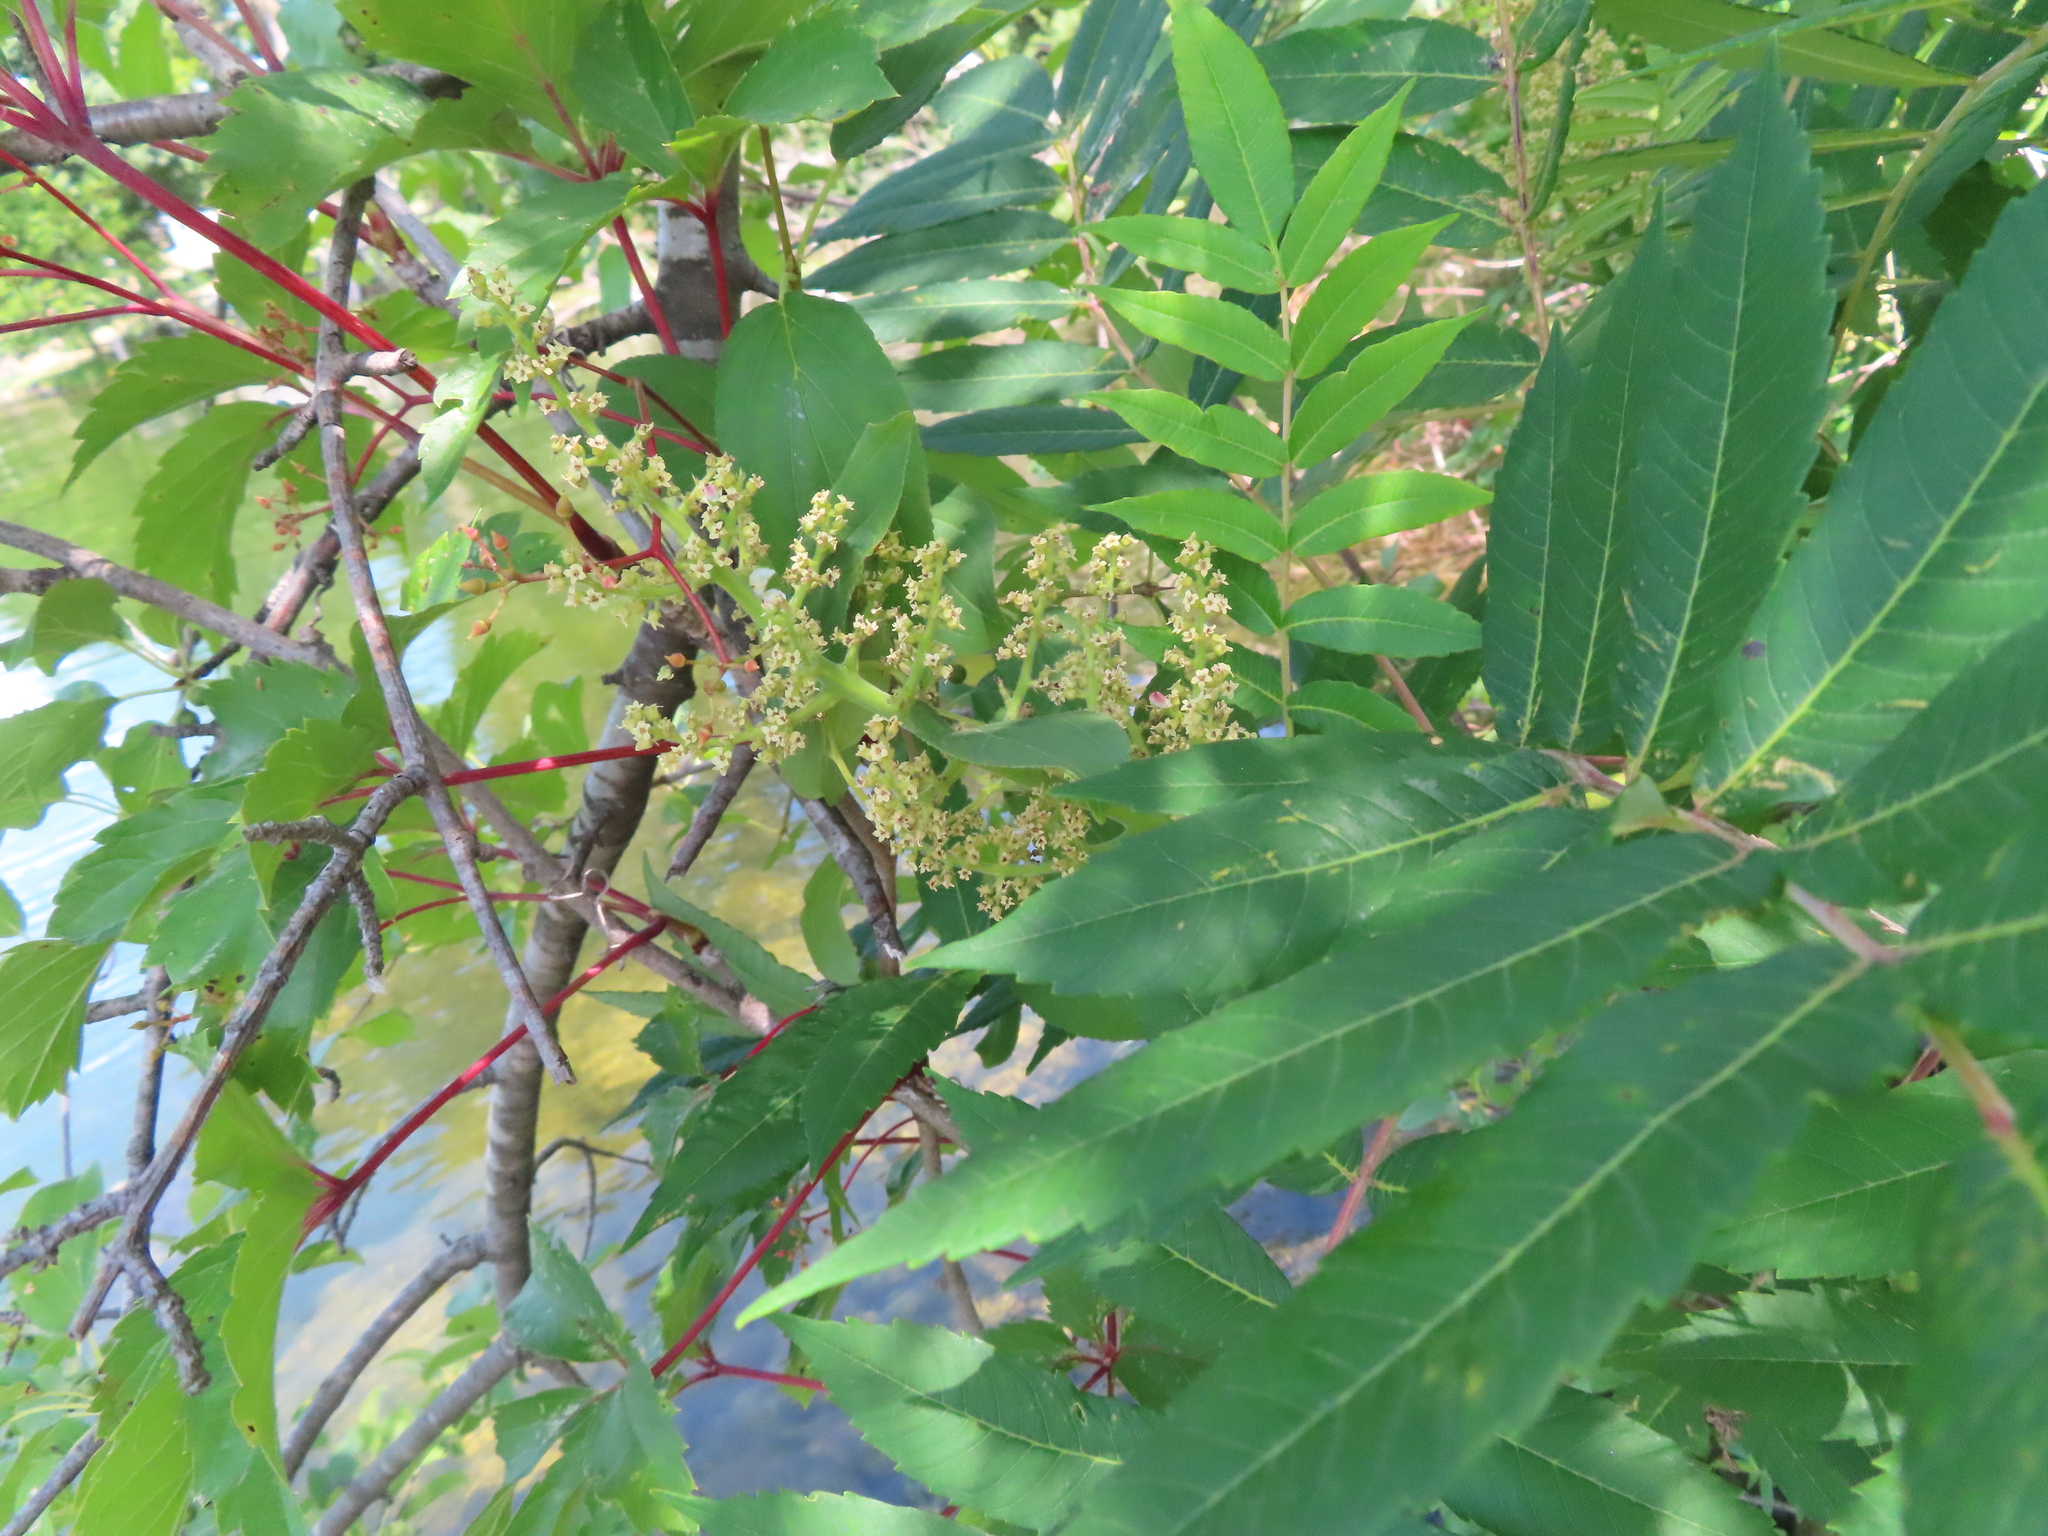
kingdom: Plantae
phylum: Tracheophyta
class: Magnoliopsida
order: Sapindales
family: Anacardiaceae
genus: Rhus
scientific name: Rhus glabra
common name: Scarlet sumac
